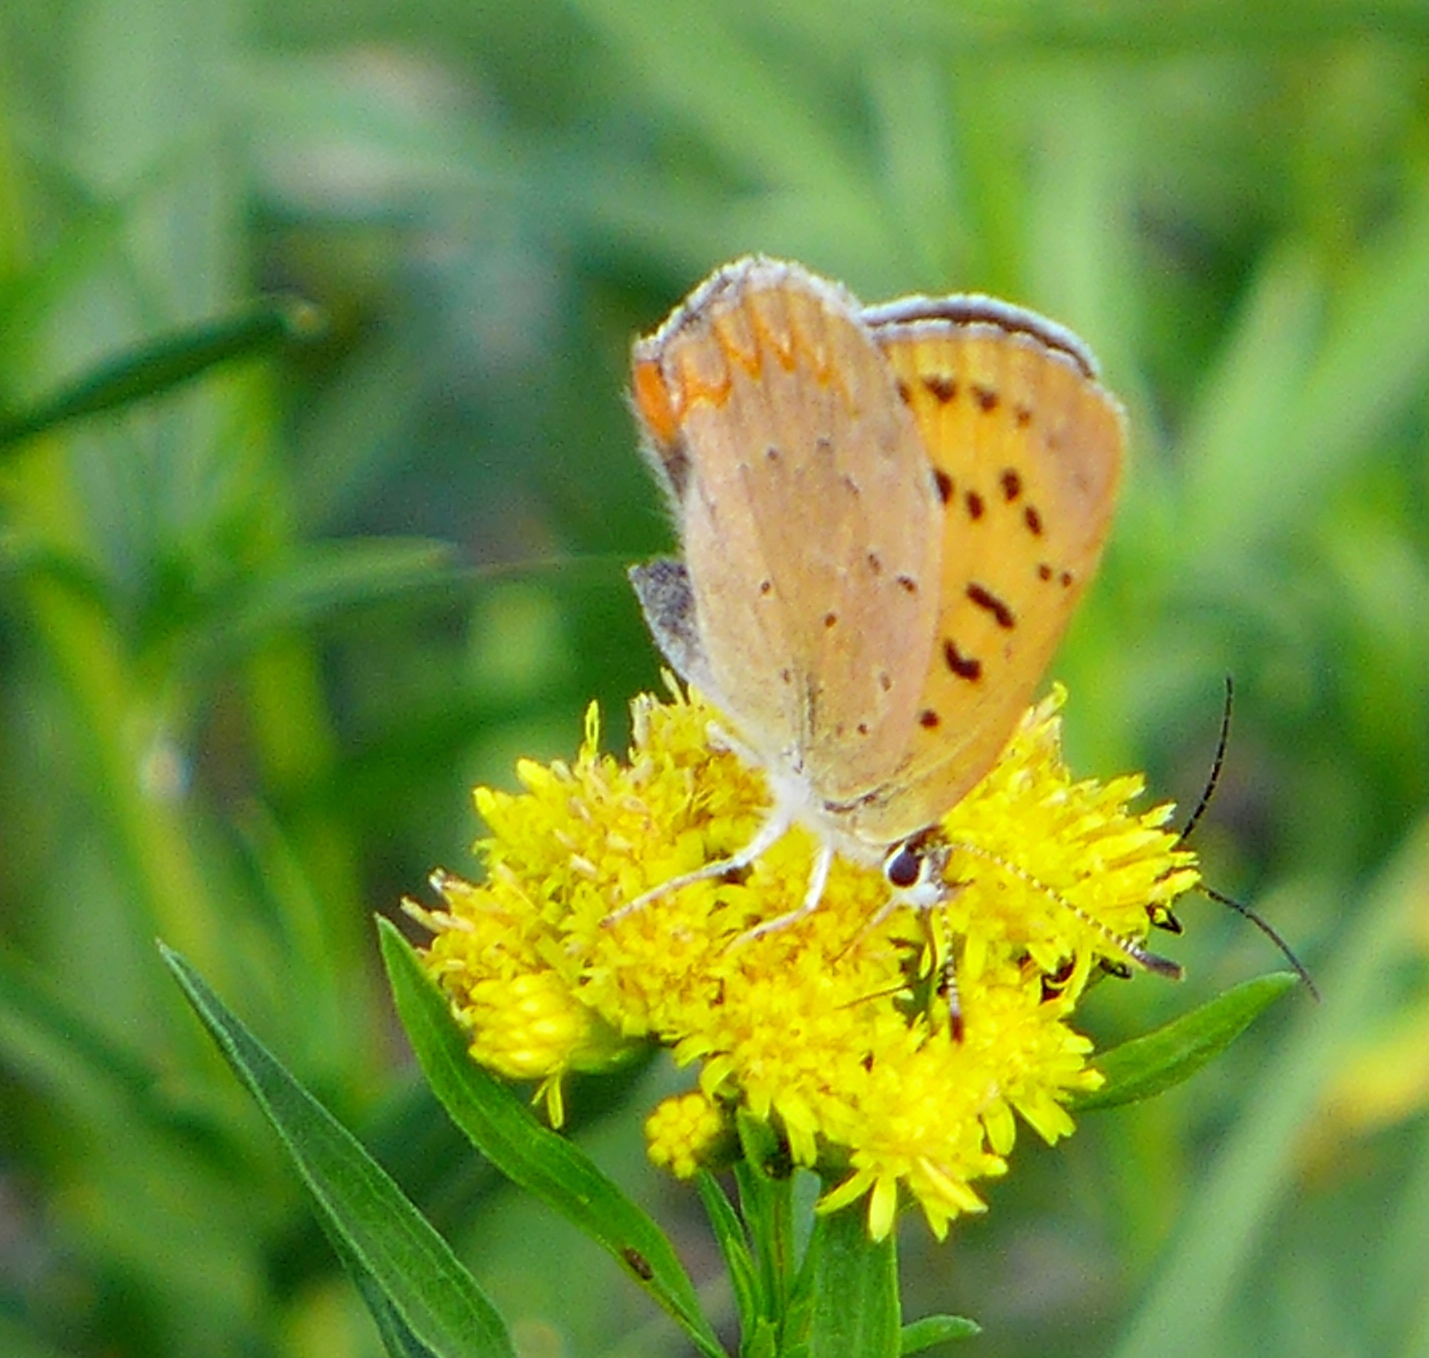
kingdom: Animalia
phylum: Arthropoda
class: Insecta
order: Lepidoptera
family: Lycaenidae
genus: Tharsalea
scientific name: Tharsalea helloides
